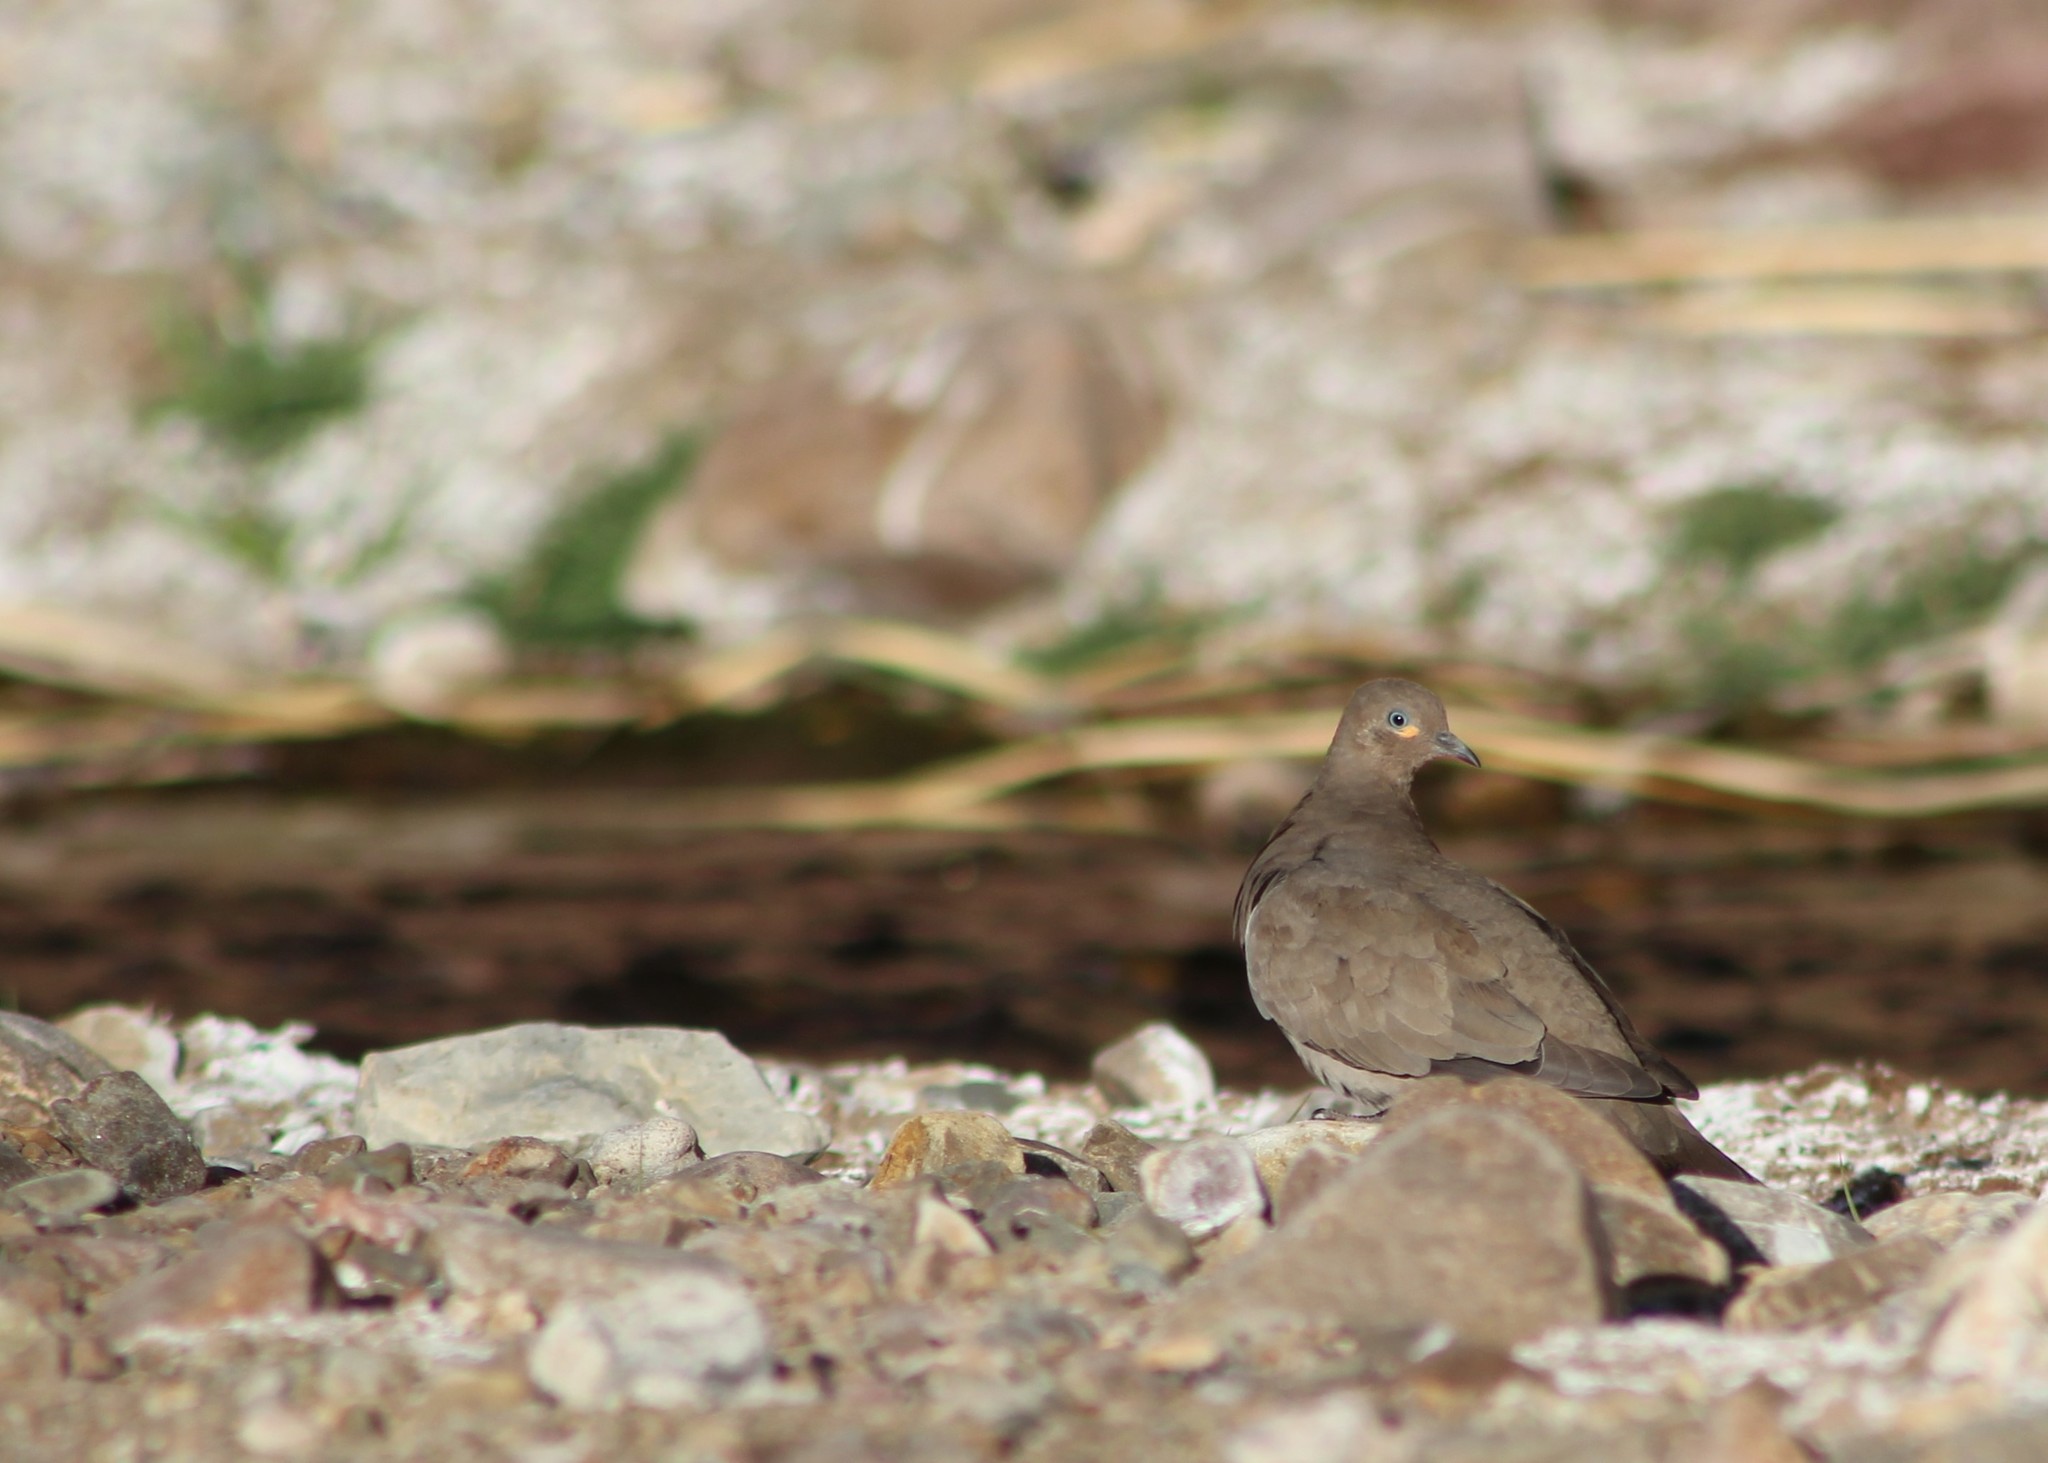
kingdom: Animalia
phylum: Chordata
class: Aves
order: Columbiformes
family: Columbidae
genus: Metriopelia
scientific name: Metriopelia melanoptera
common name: Black-winged ground dove
